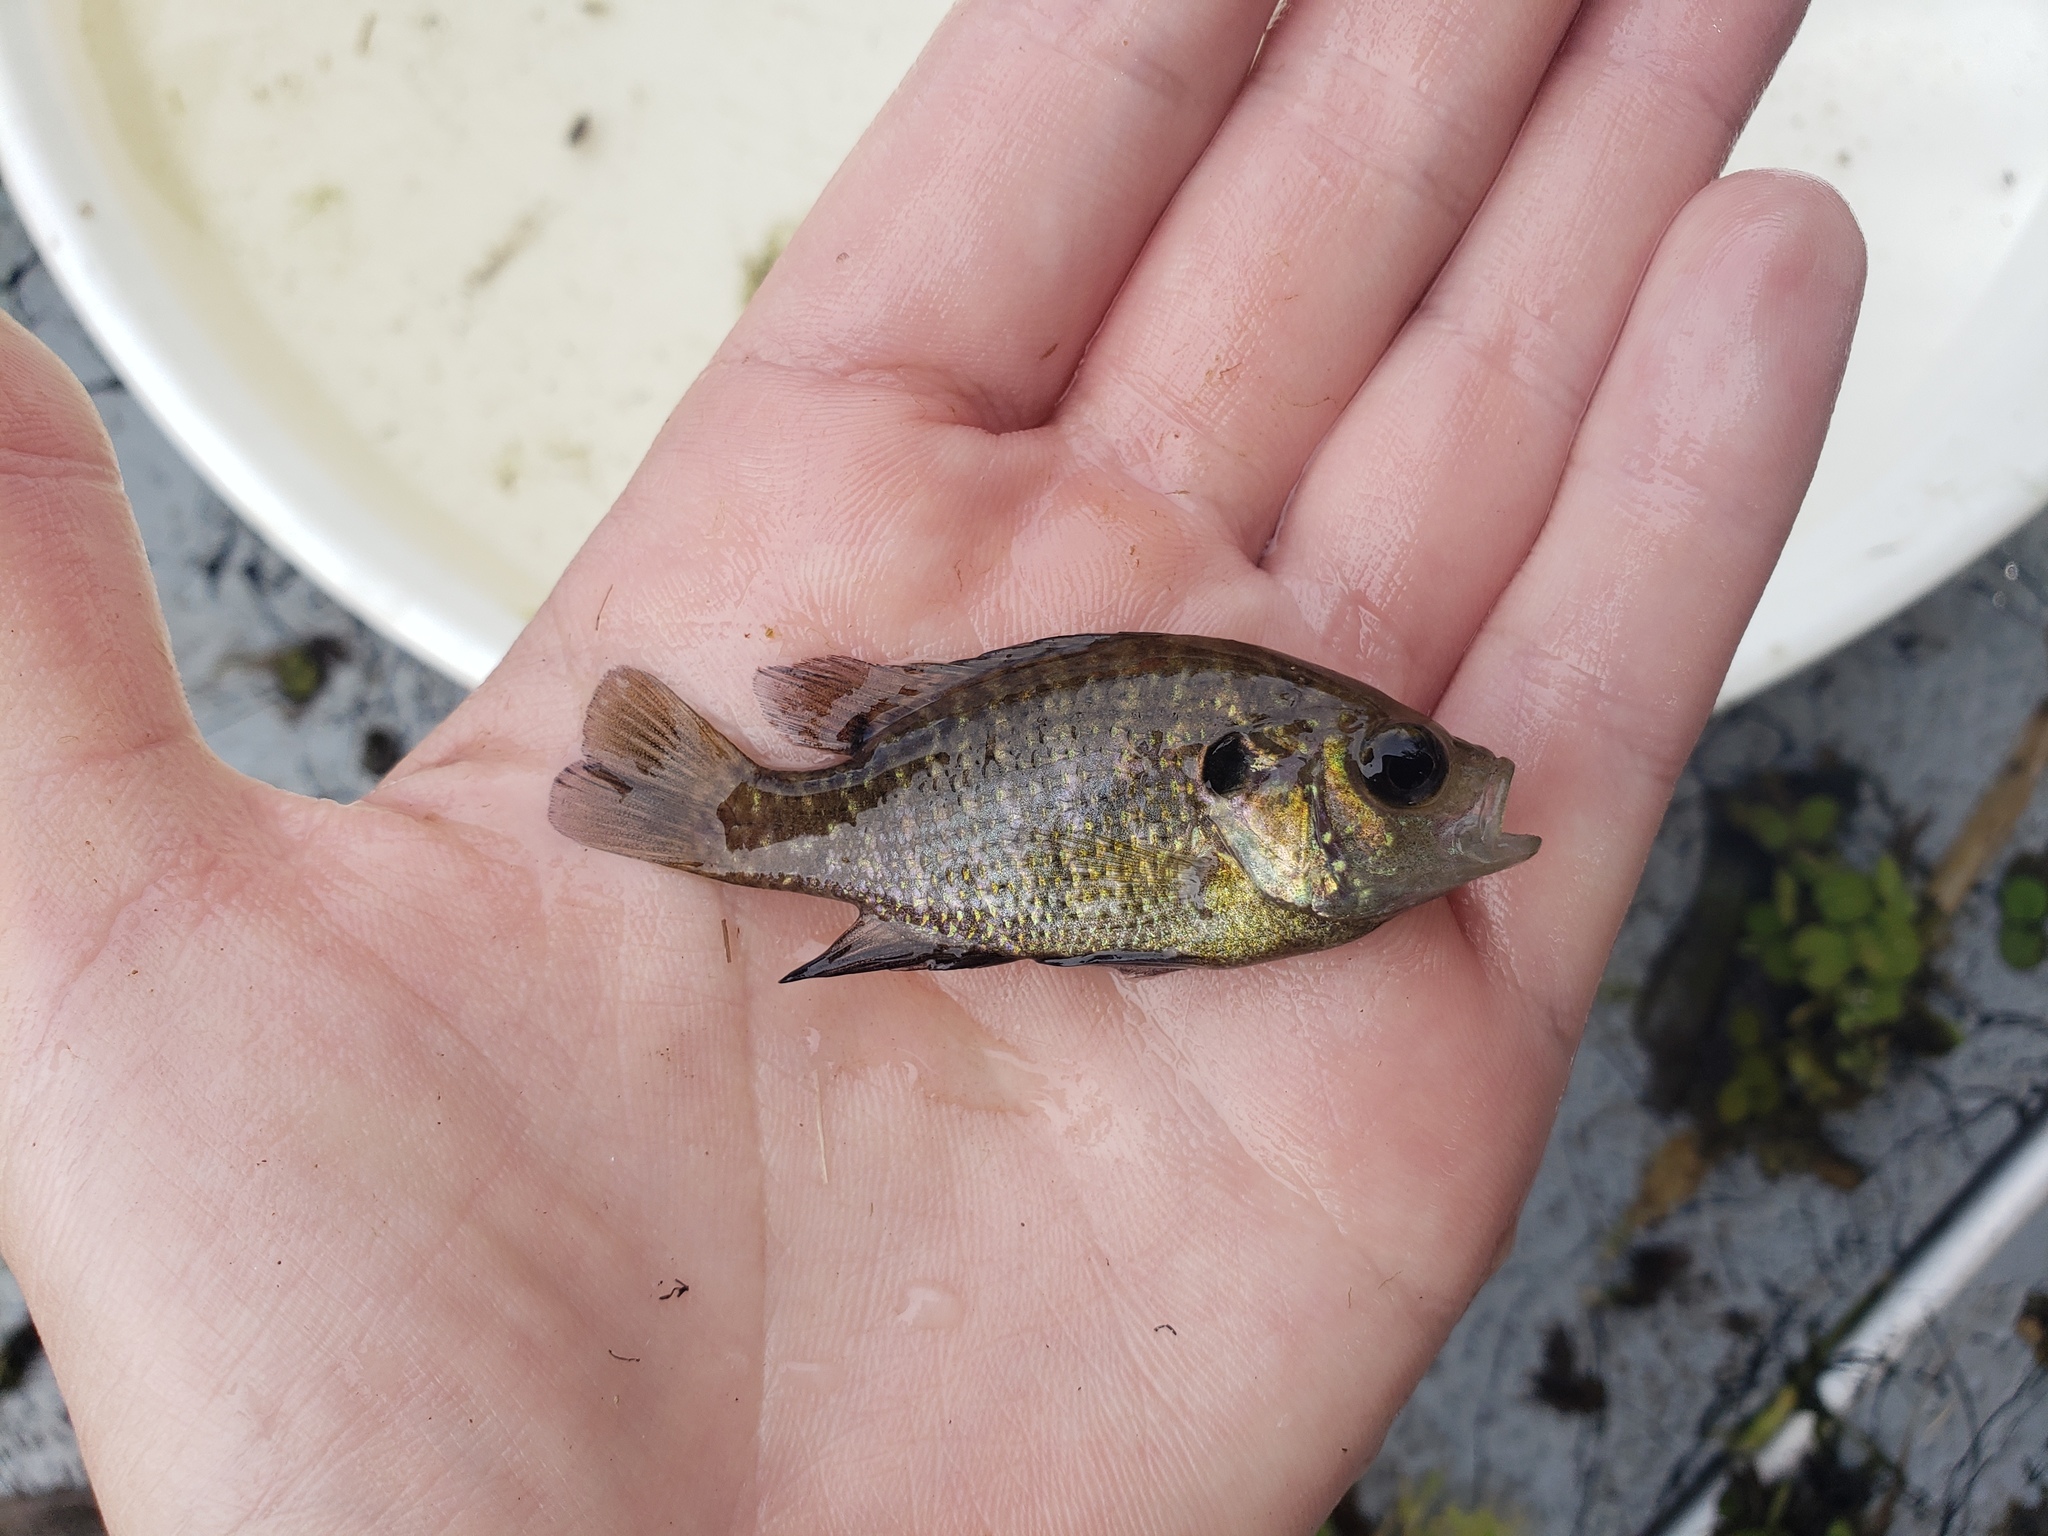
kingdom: Animalia
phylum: Chordata
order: Perciformes
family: Centrarchidae
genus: Lepomis
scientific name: Lepomis gulosus
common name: Warmouth
